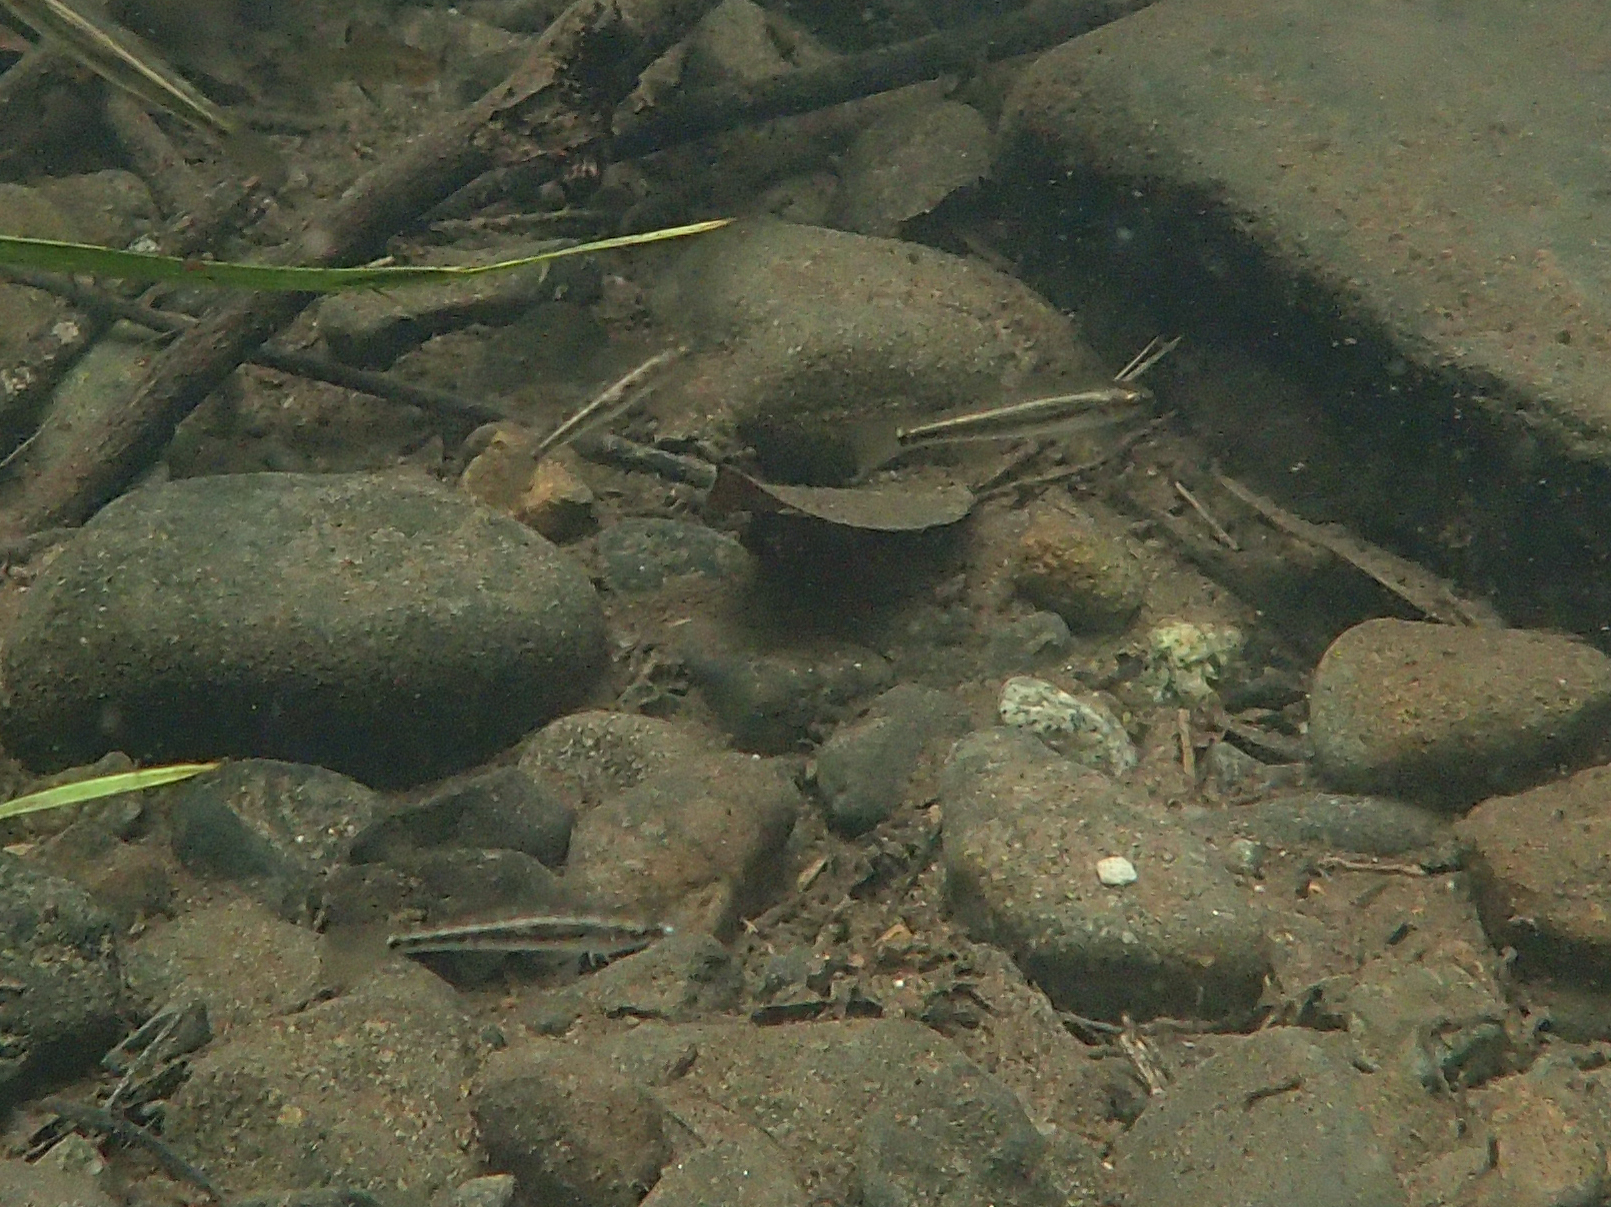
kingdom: Animalia
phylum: Chordata
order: Perciformes
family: Eleotridae
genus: Hypseleotris
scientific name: Hypseleotris compressa
